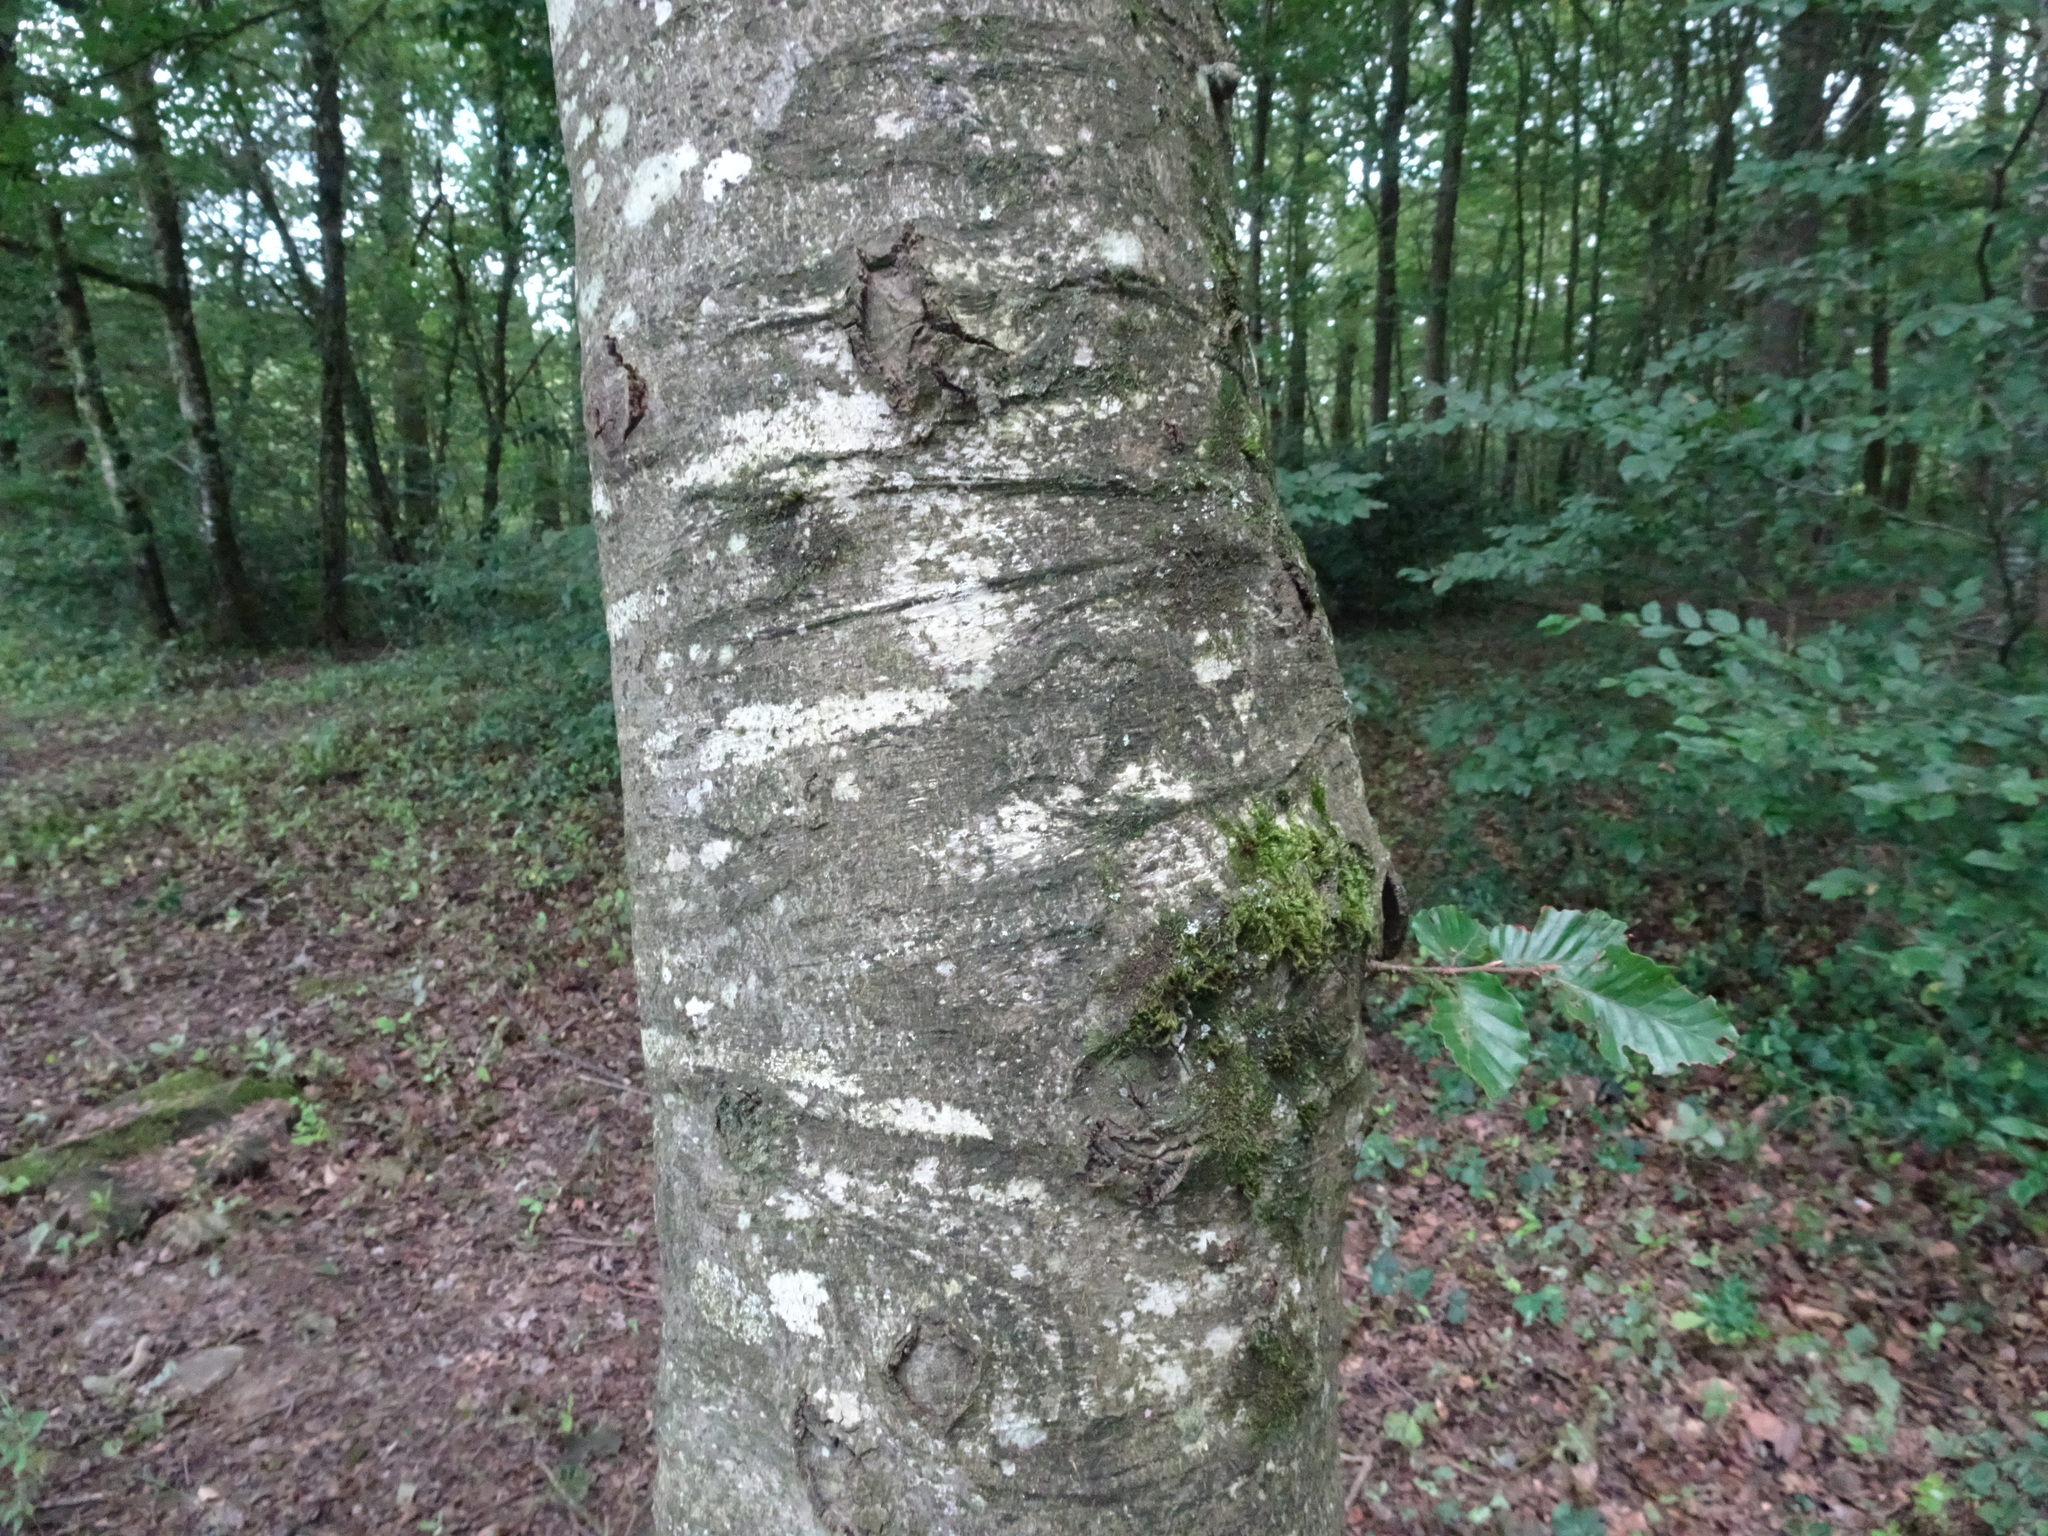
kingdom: Plantae
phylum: Tracheophyta
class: Magnoliopsida
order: Fagales
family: Fagaceae
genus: Fagus
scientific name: Fagus sylvatica
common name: Beech
